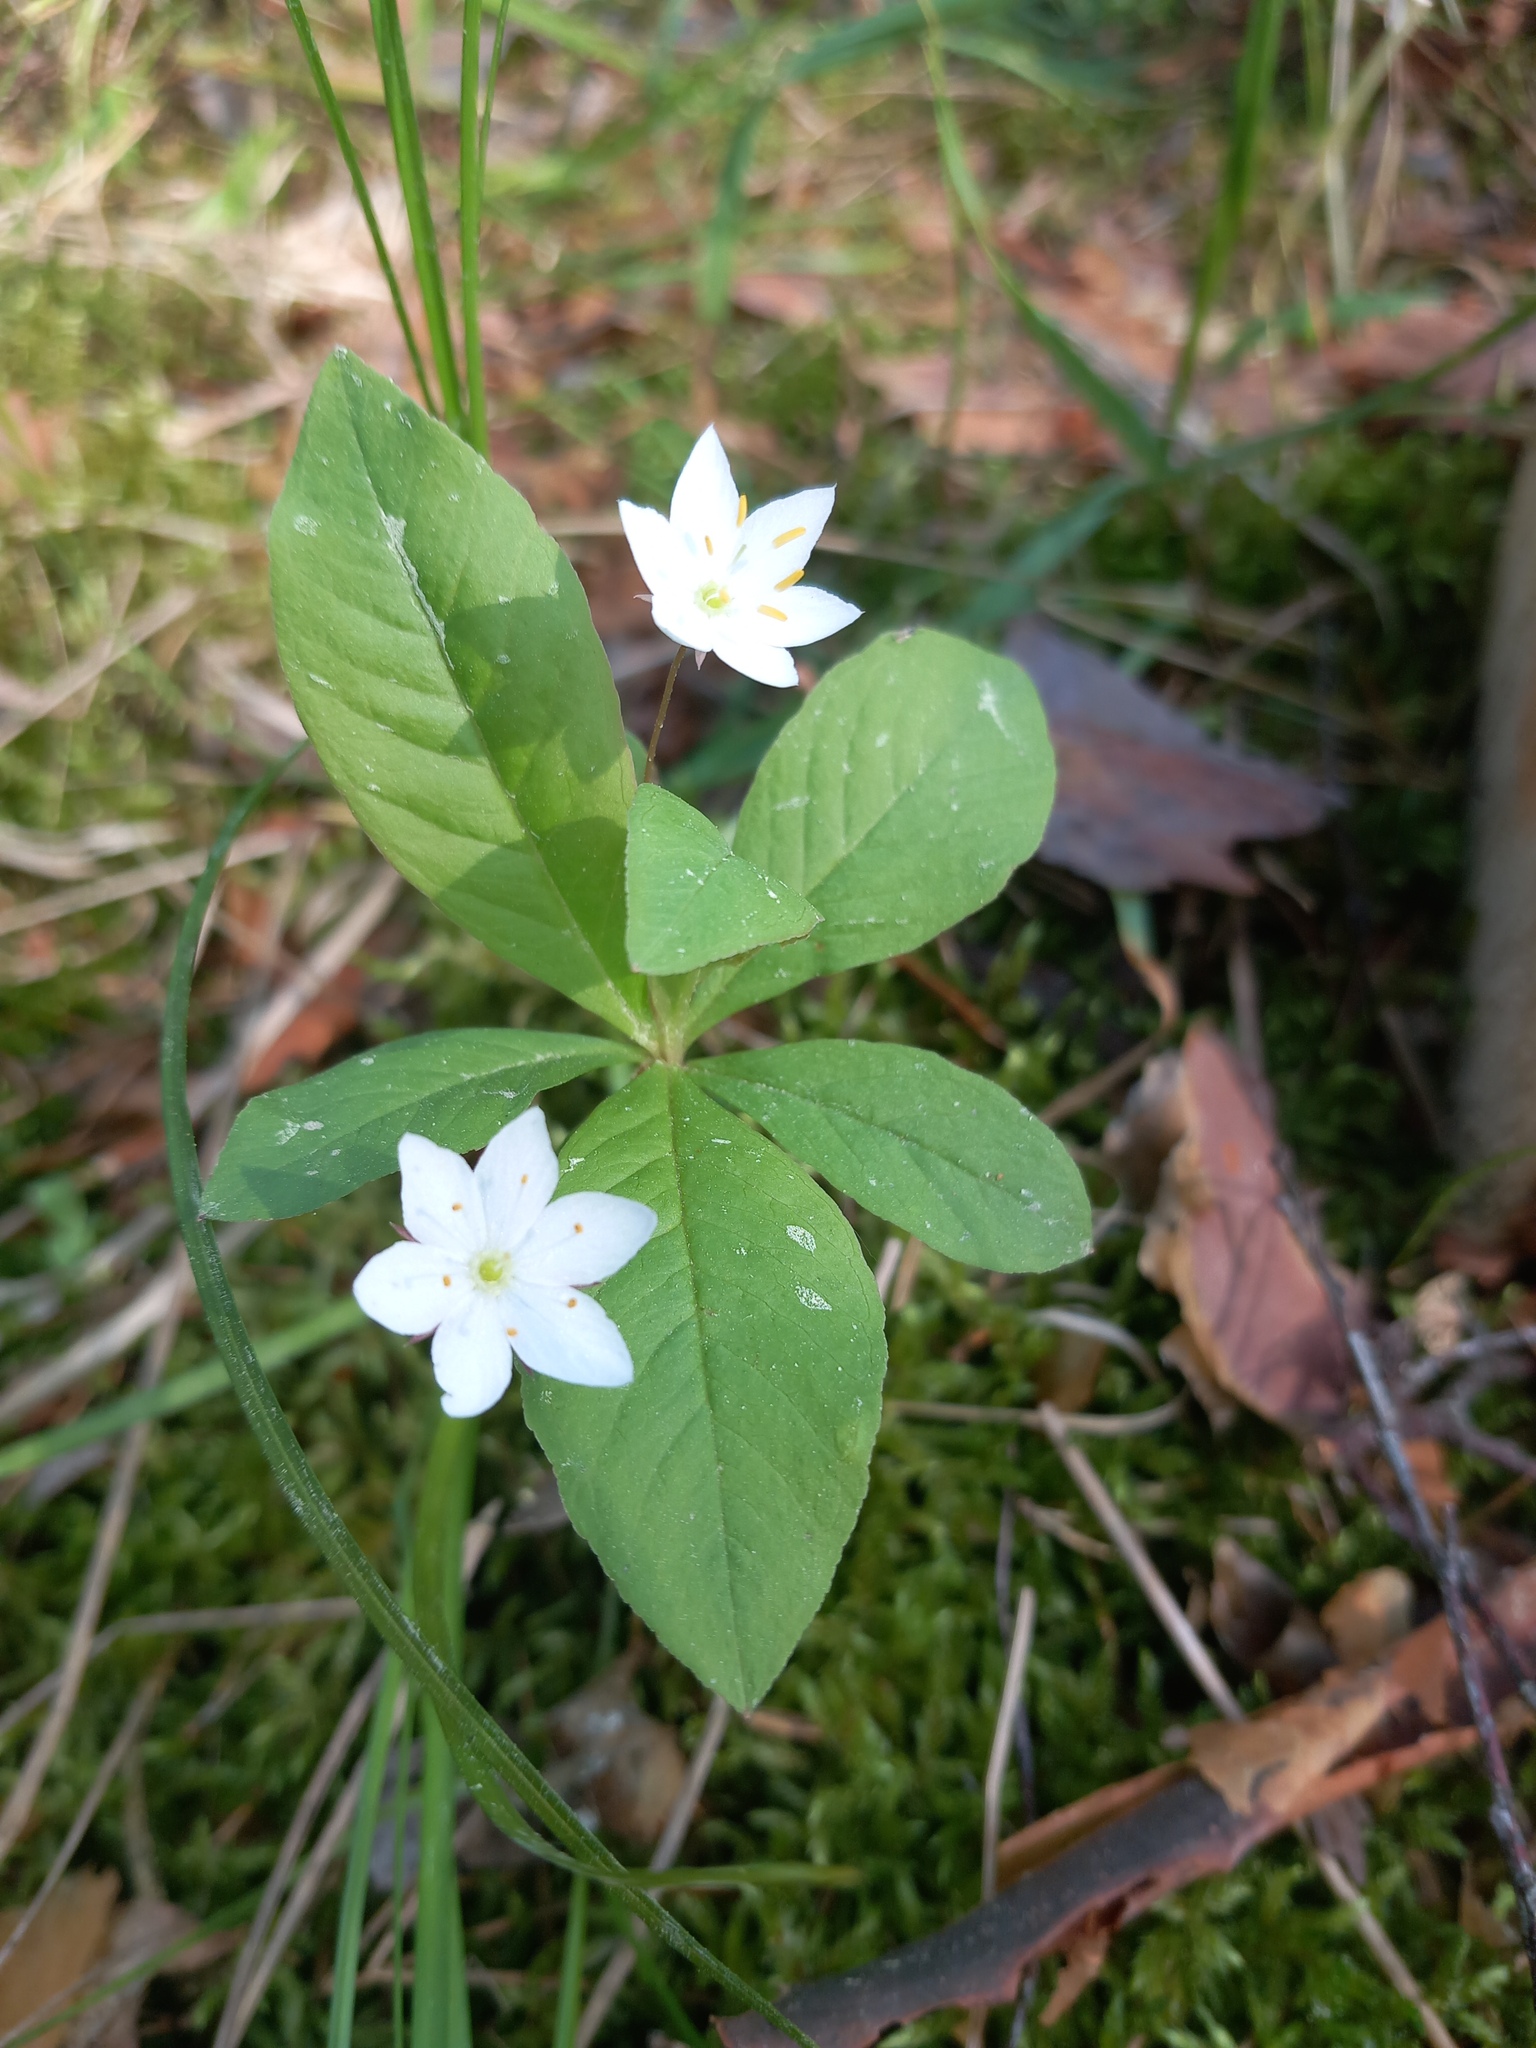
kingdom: Plantae
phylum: Tracheophyta
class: Magnoliopsida
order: Ericales
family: Primulaceae
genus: Lysimachia
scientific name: Lysimachia europaea
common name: Arctic starflower
